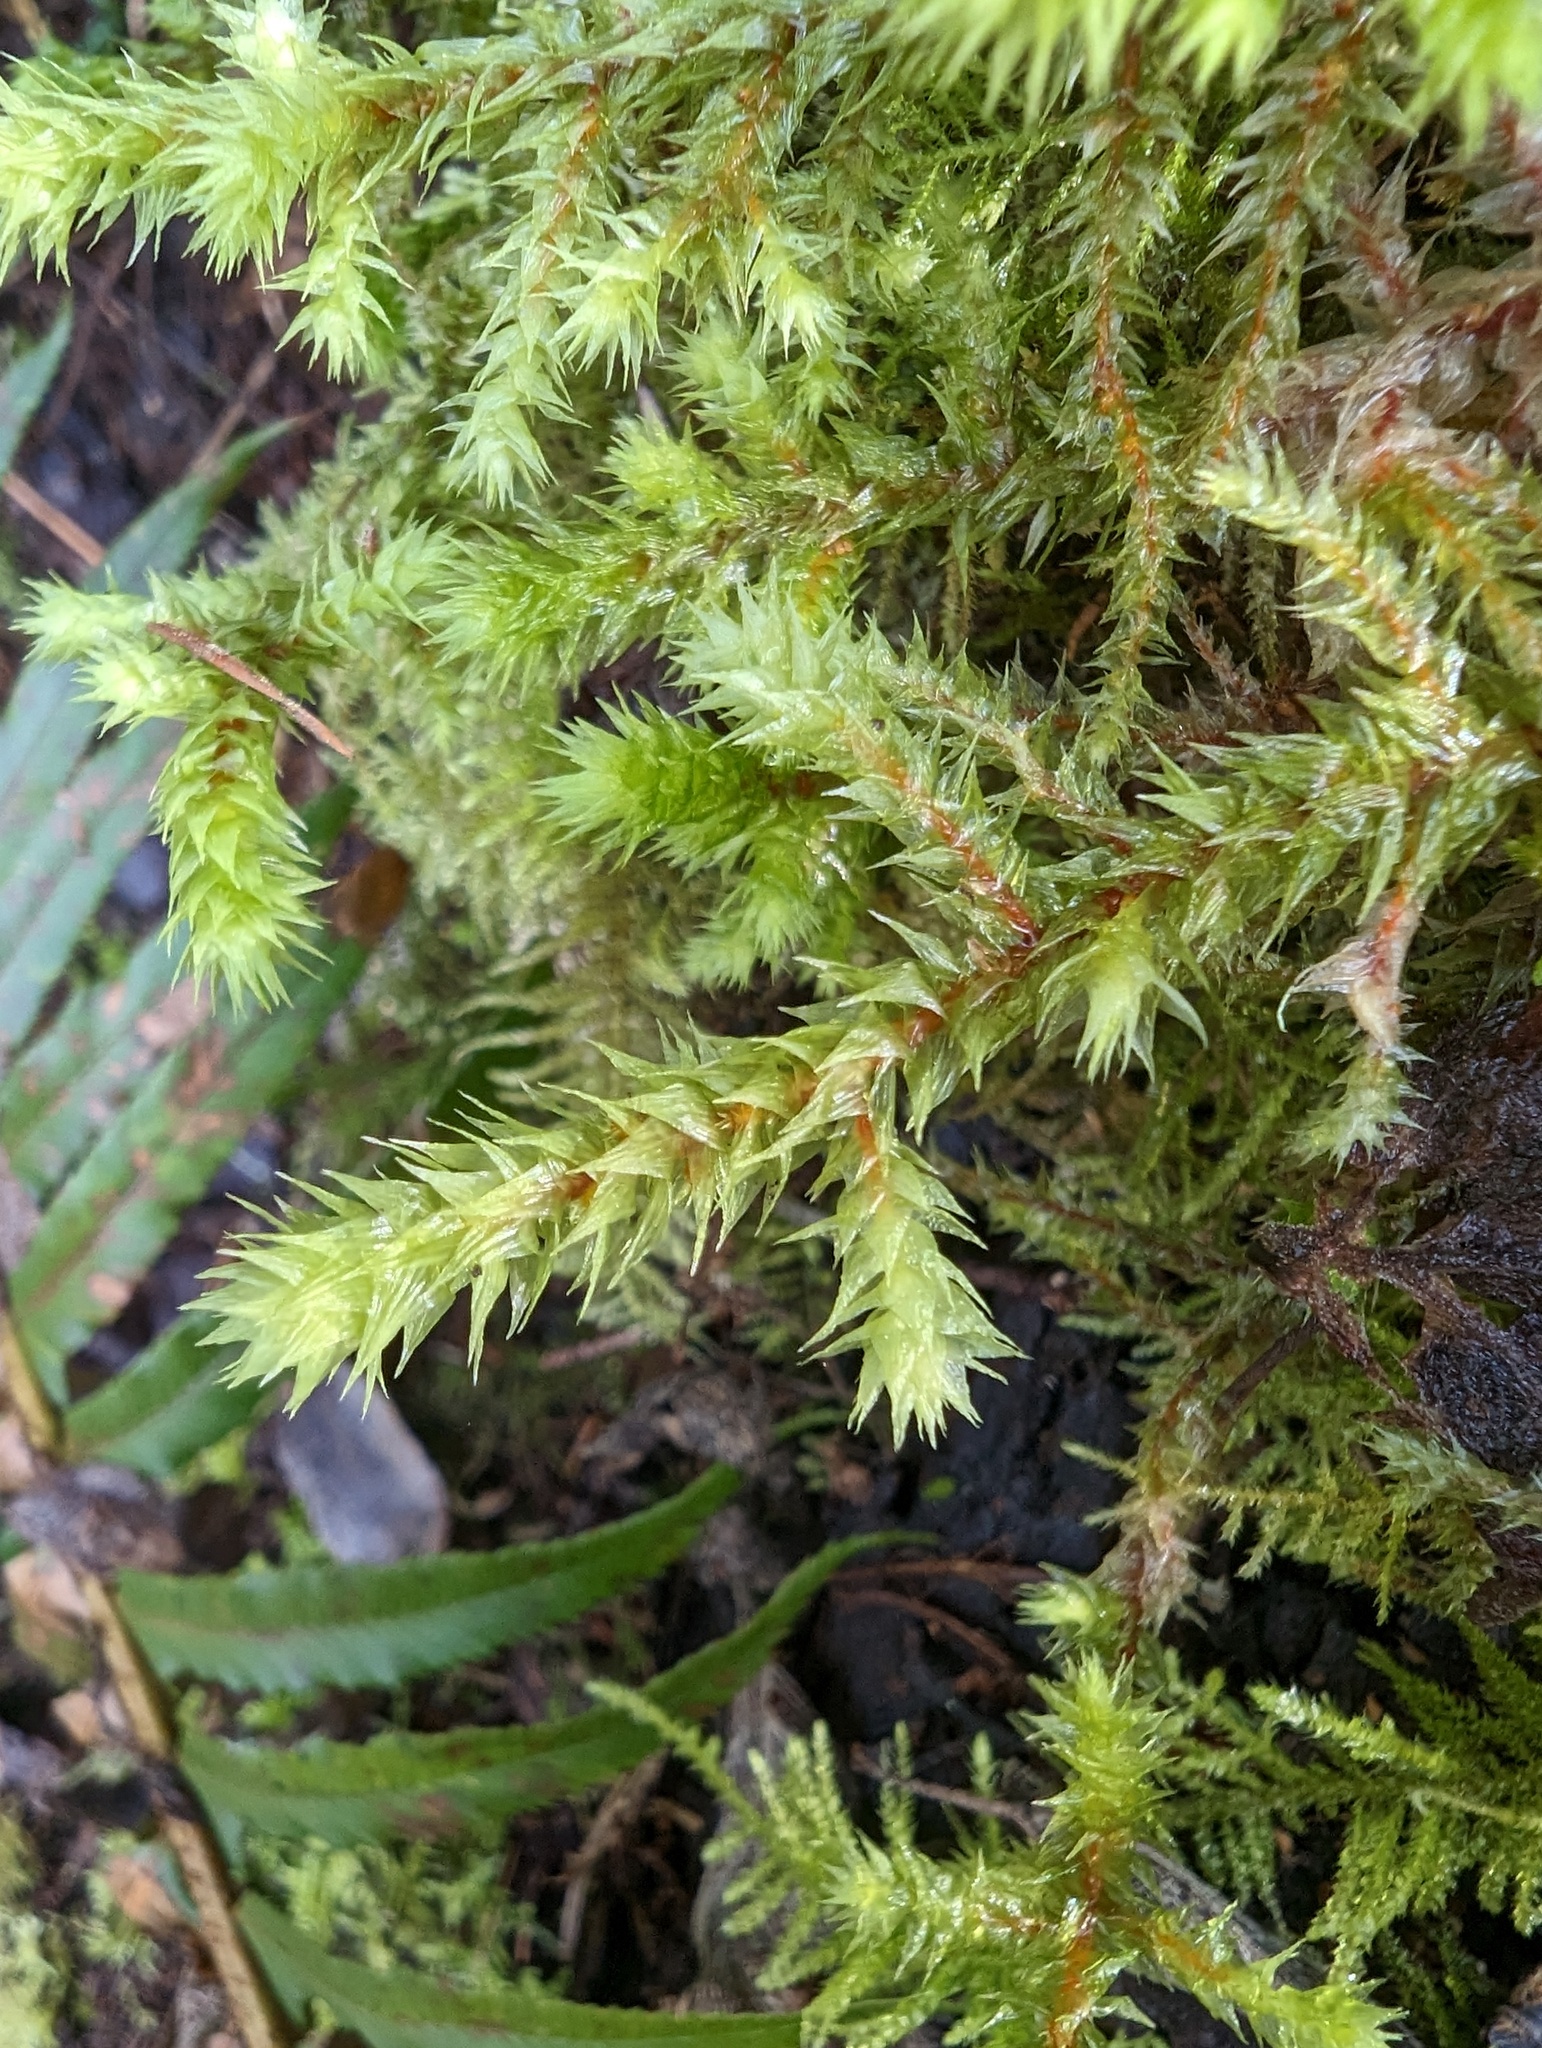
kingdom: Plantae
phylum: Bryophyta
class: Bryopsida
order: Hypnales
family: Hylocomiaceae
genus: Hylocomiadelphus
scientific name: Hylocomiadelphus triquetrus
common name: Rough goose neck moss
